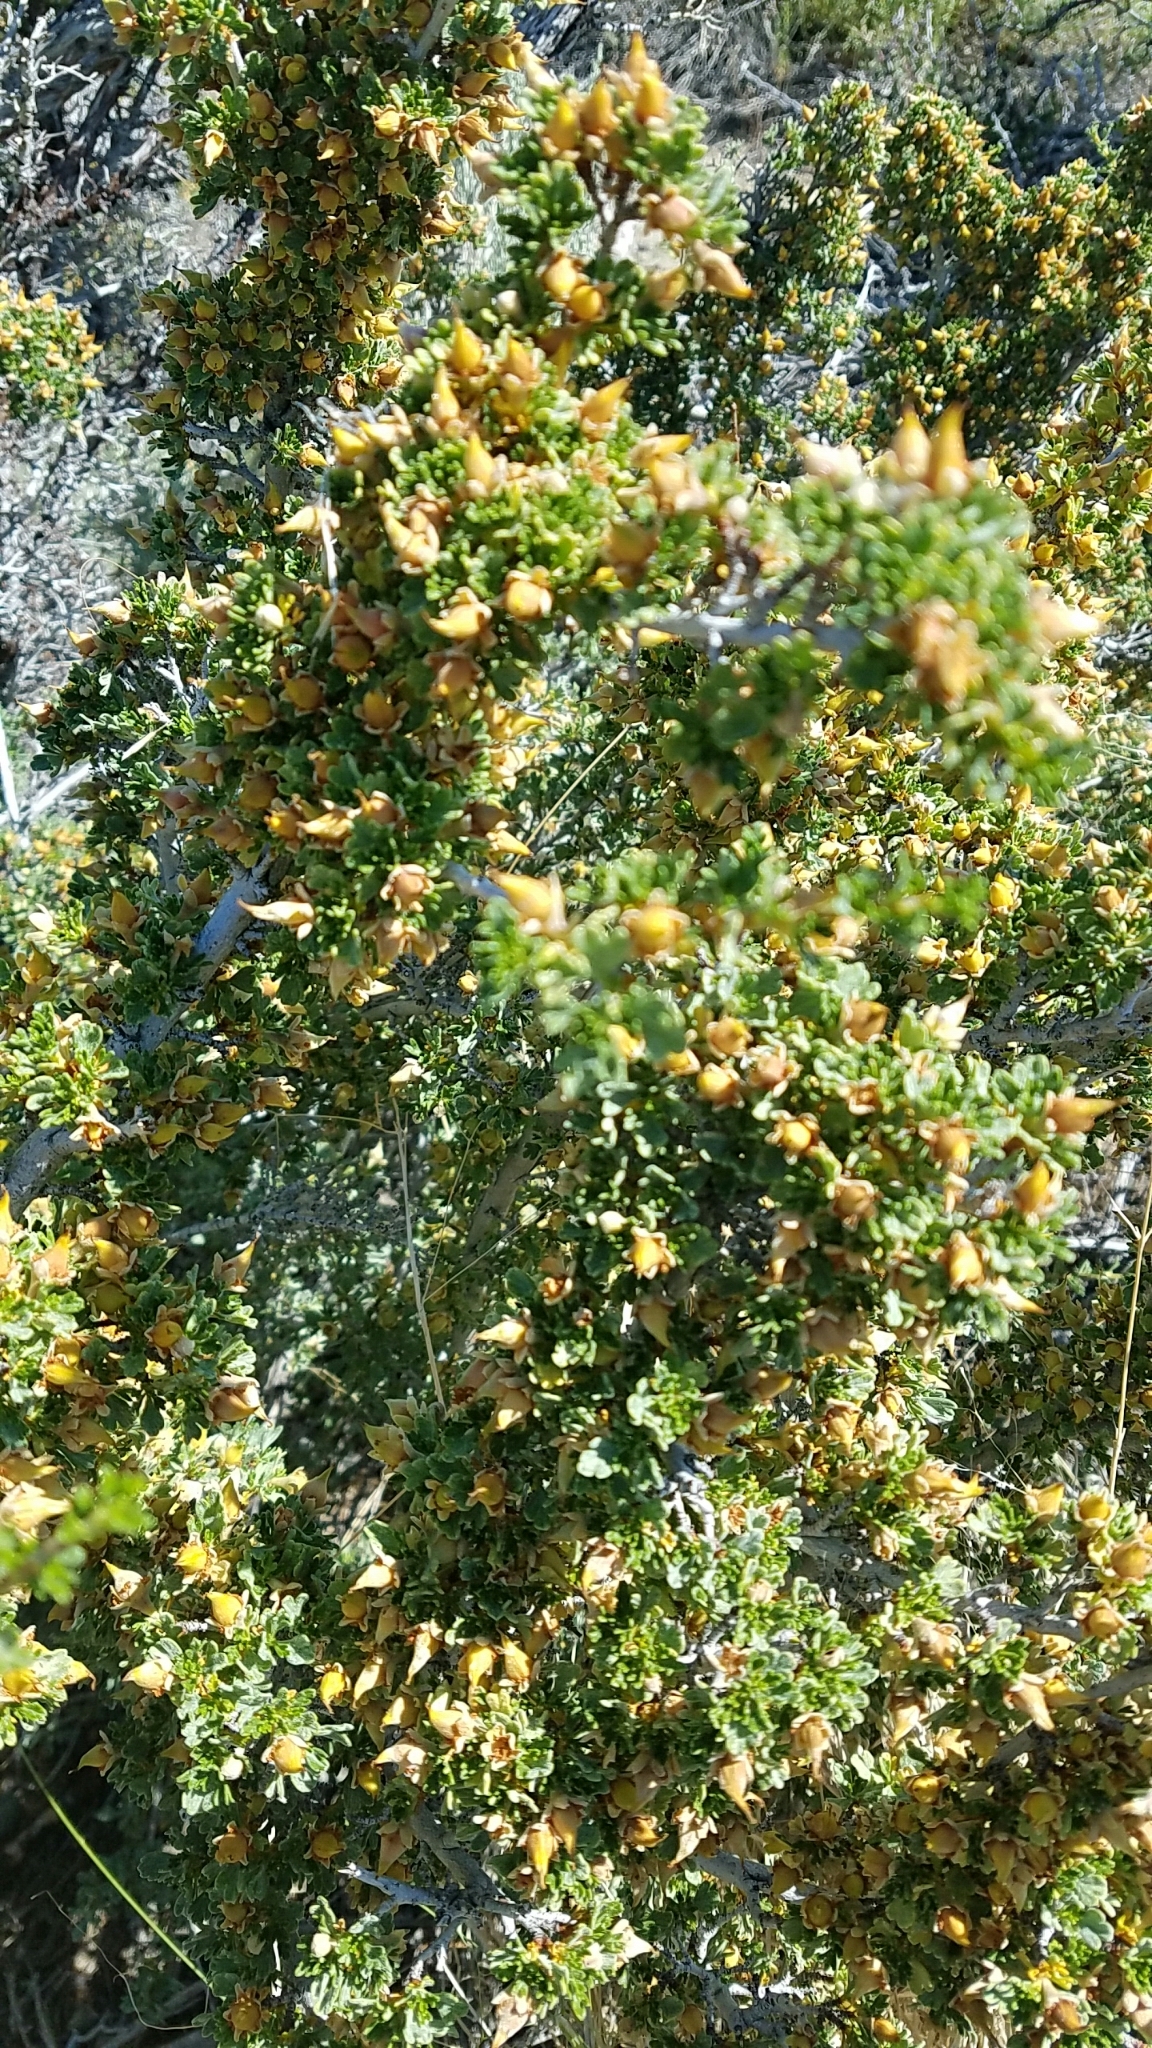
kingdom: Plantae
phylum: Tracheophyta
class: Magnoliopsida
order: Rosales
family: Rosaceae
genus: Purshia
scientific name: Purshia tridentata
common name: Antelope bitterbrush
